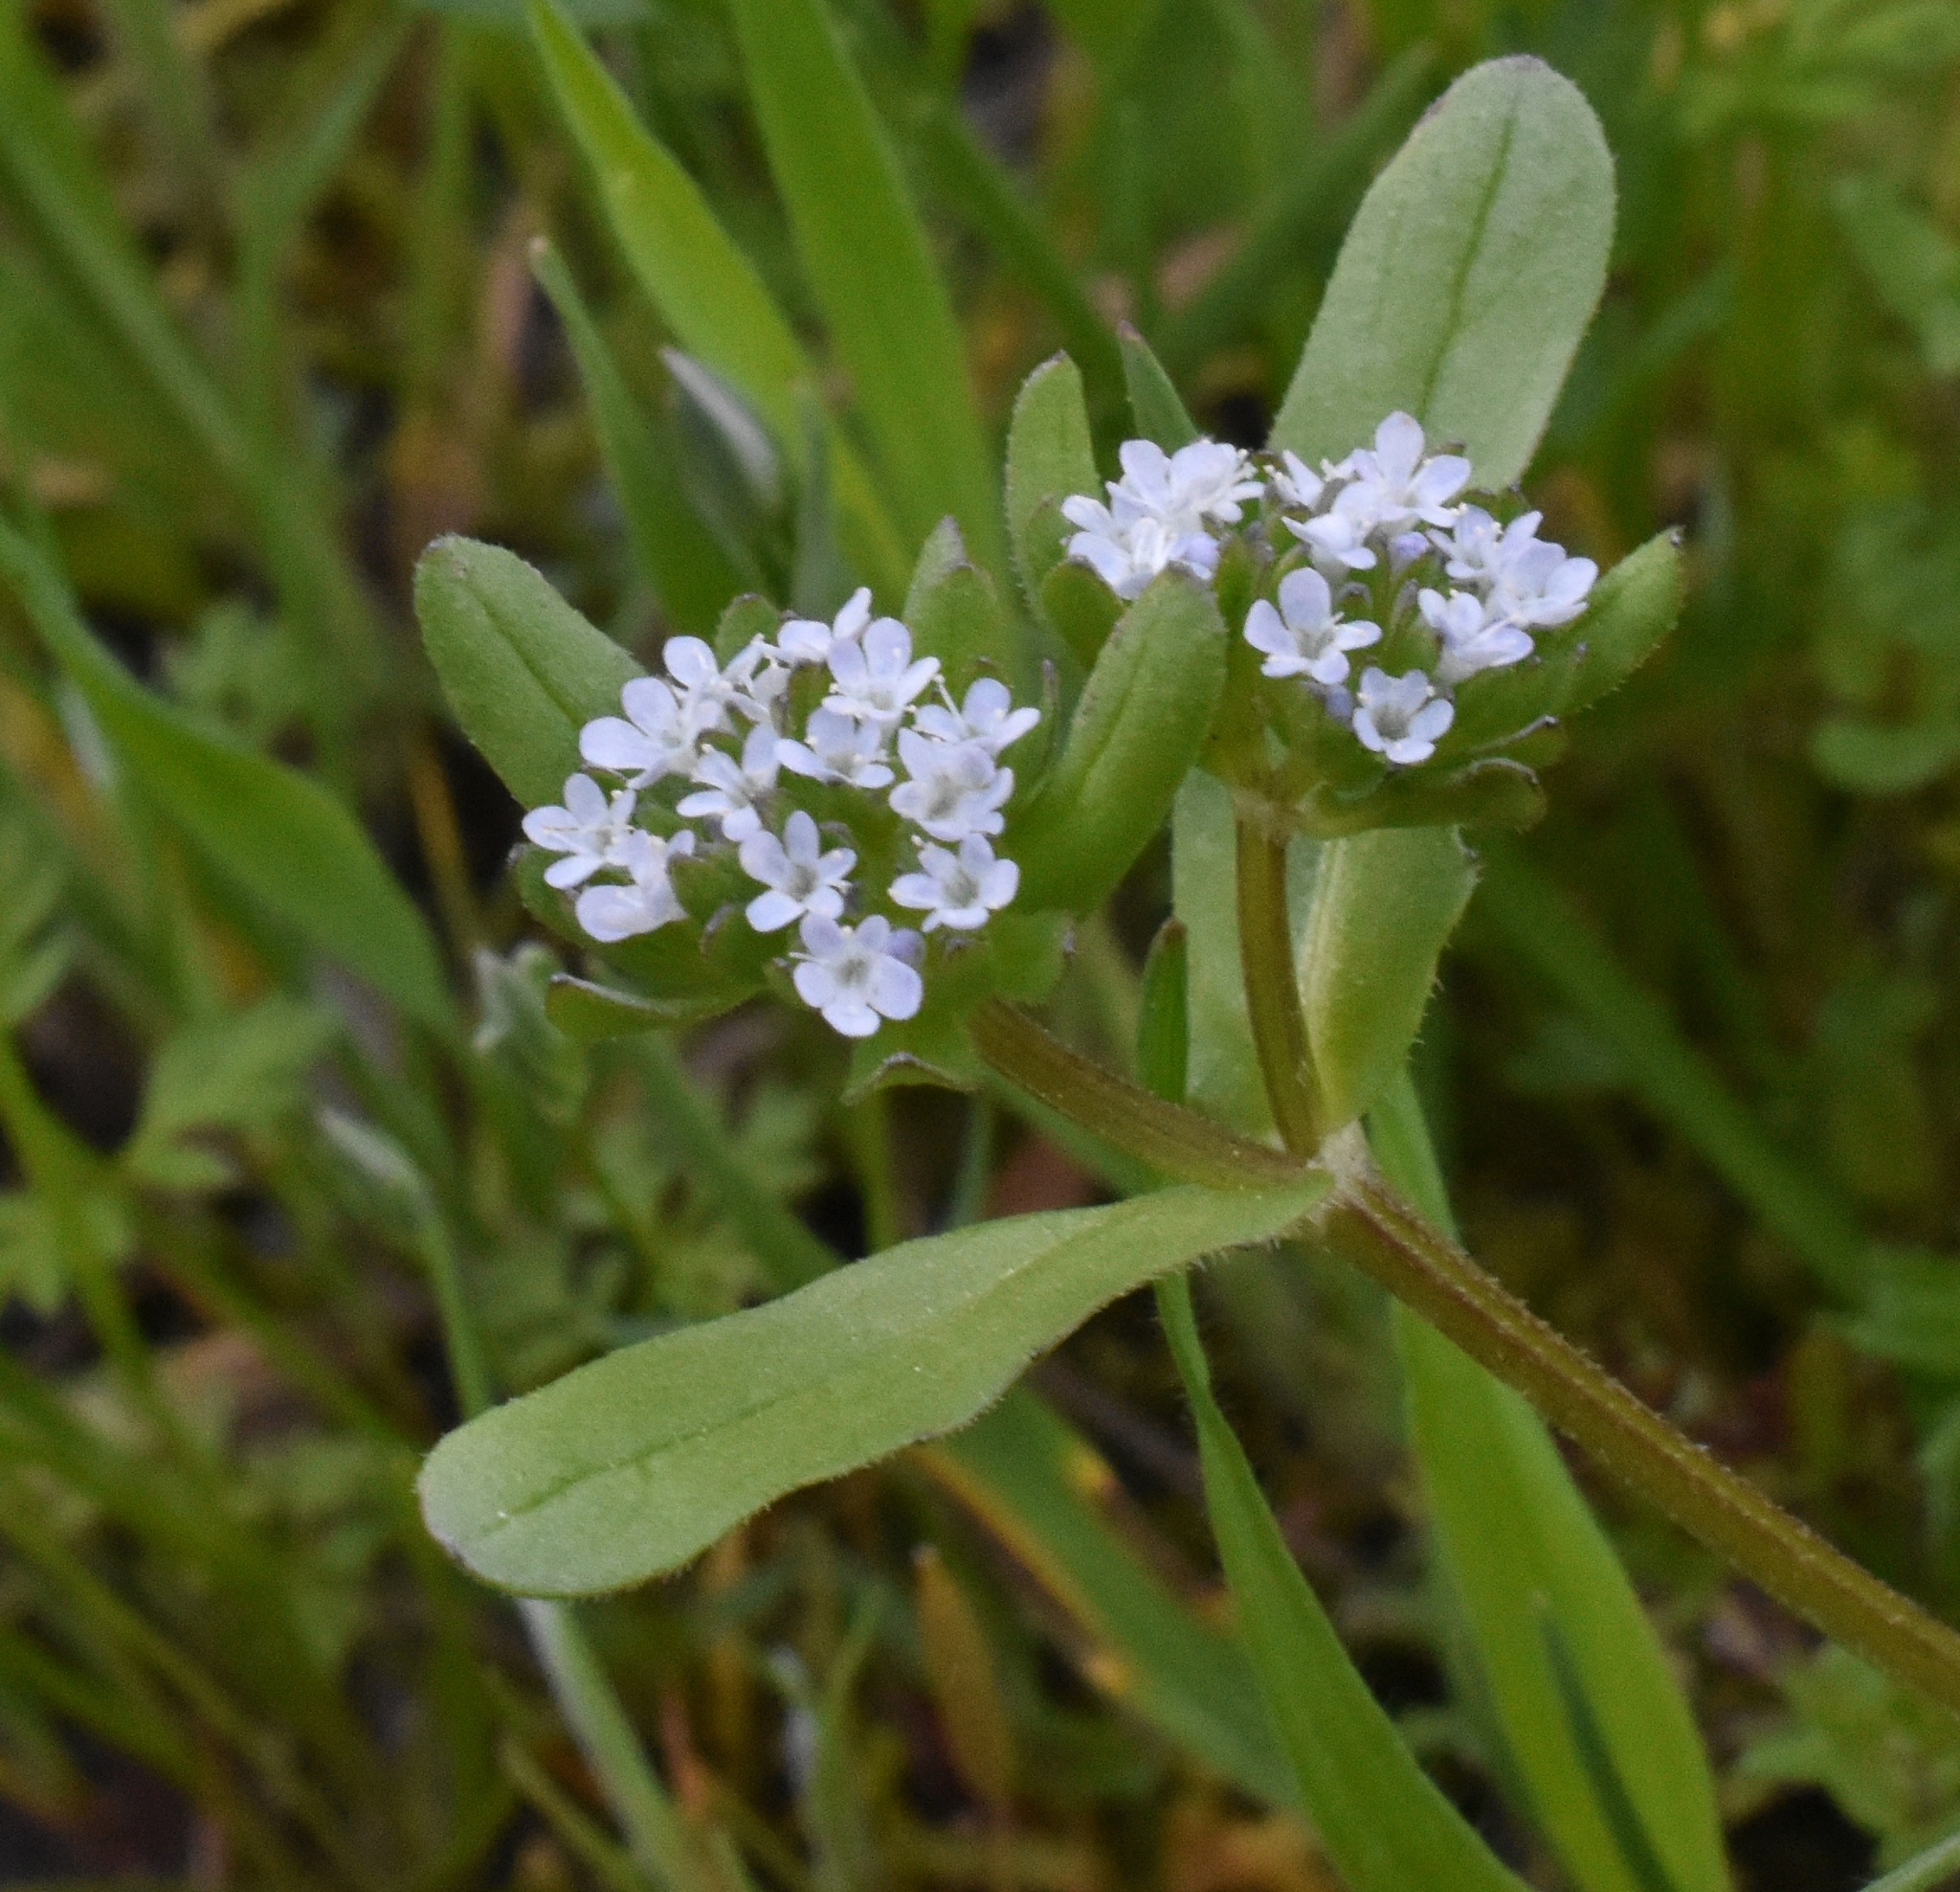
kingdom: Plantae
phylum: Tracheophyta
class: Magnoliopsida
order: Dipsacales
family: Caprifoliaceae
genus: Valerianella
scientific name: Valerianella locusta
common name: Common cornsalad
